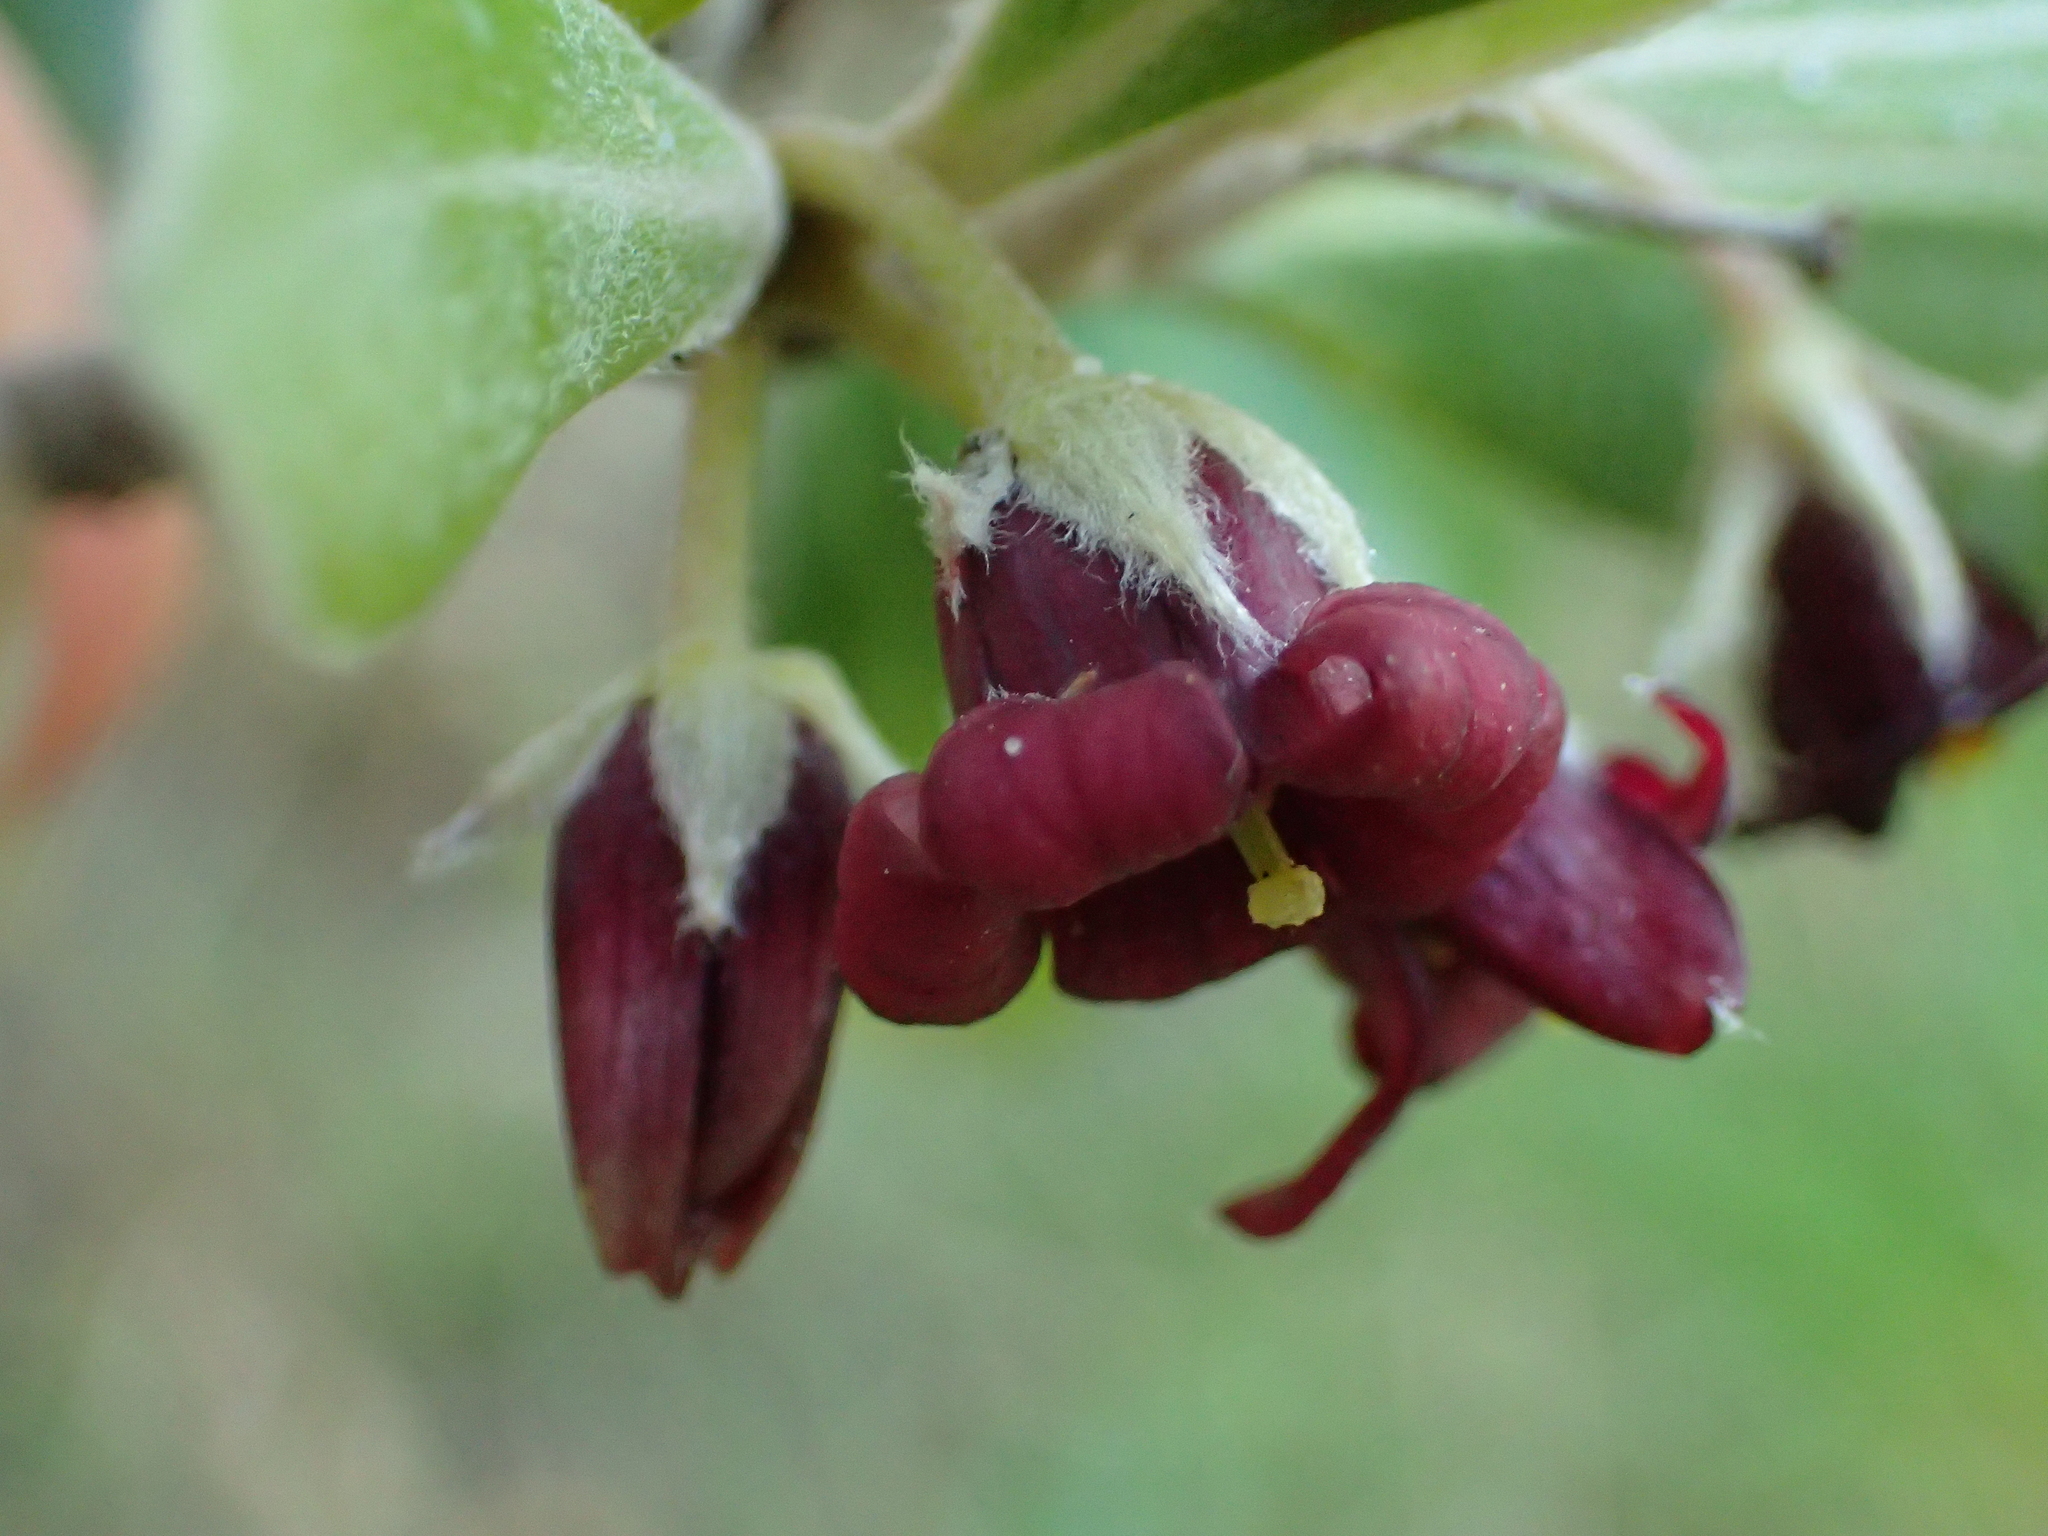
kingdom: Plantae
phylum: Tracheophyta
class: Magnoliopsida
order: Apiales
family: Pittosporaceae
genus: Pittosporum
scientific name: Pittosporum crassifolium
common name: Karo
